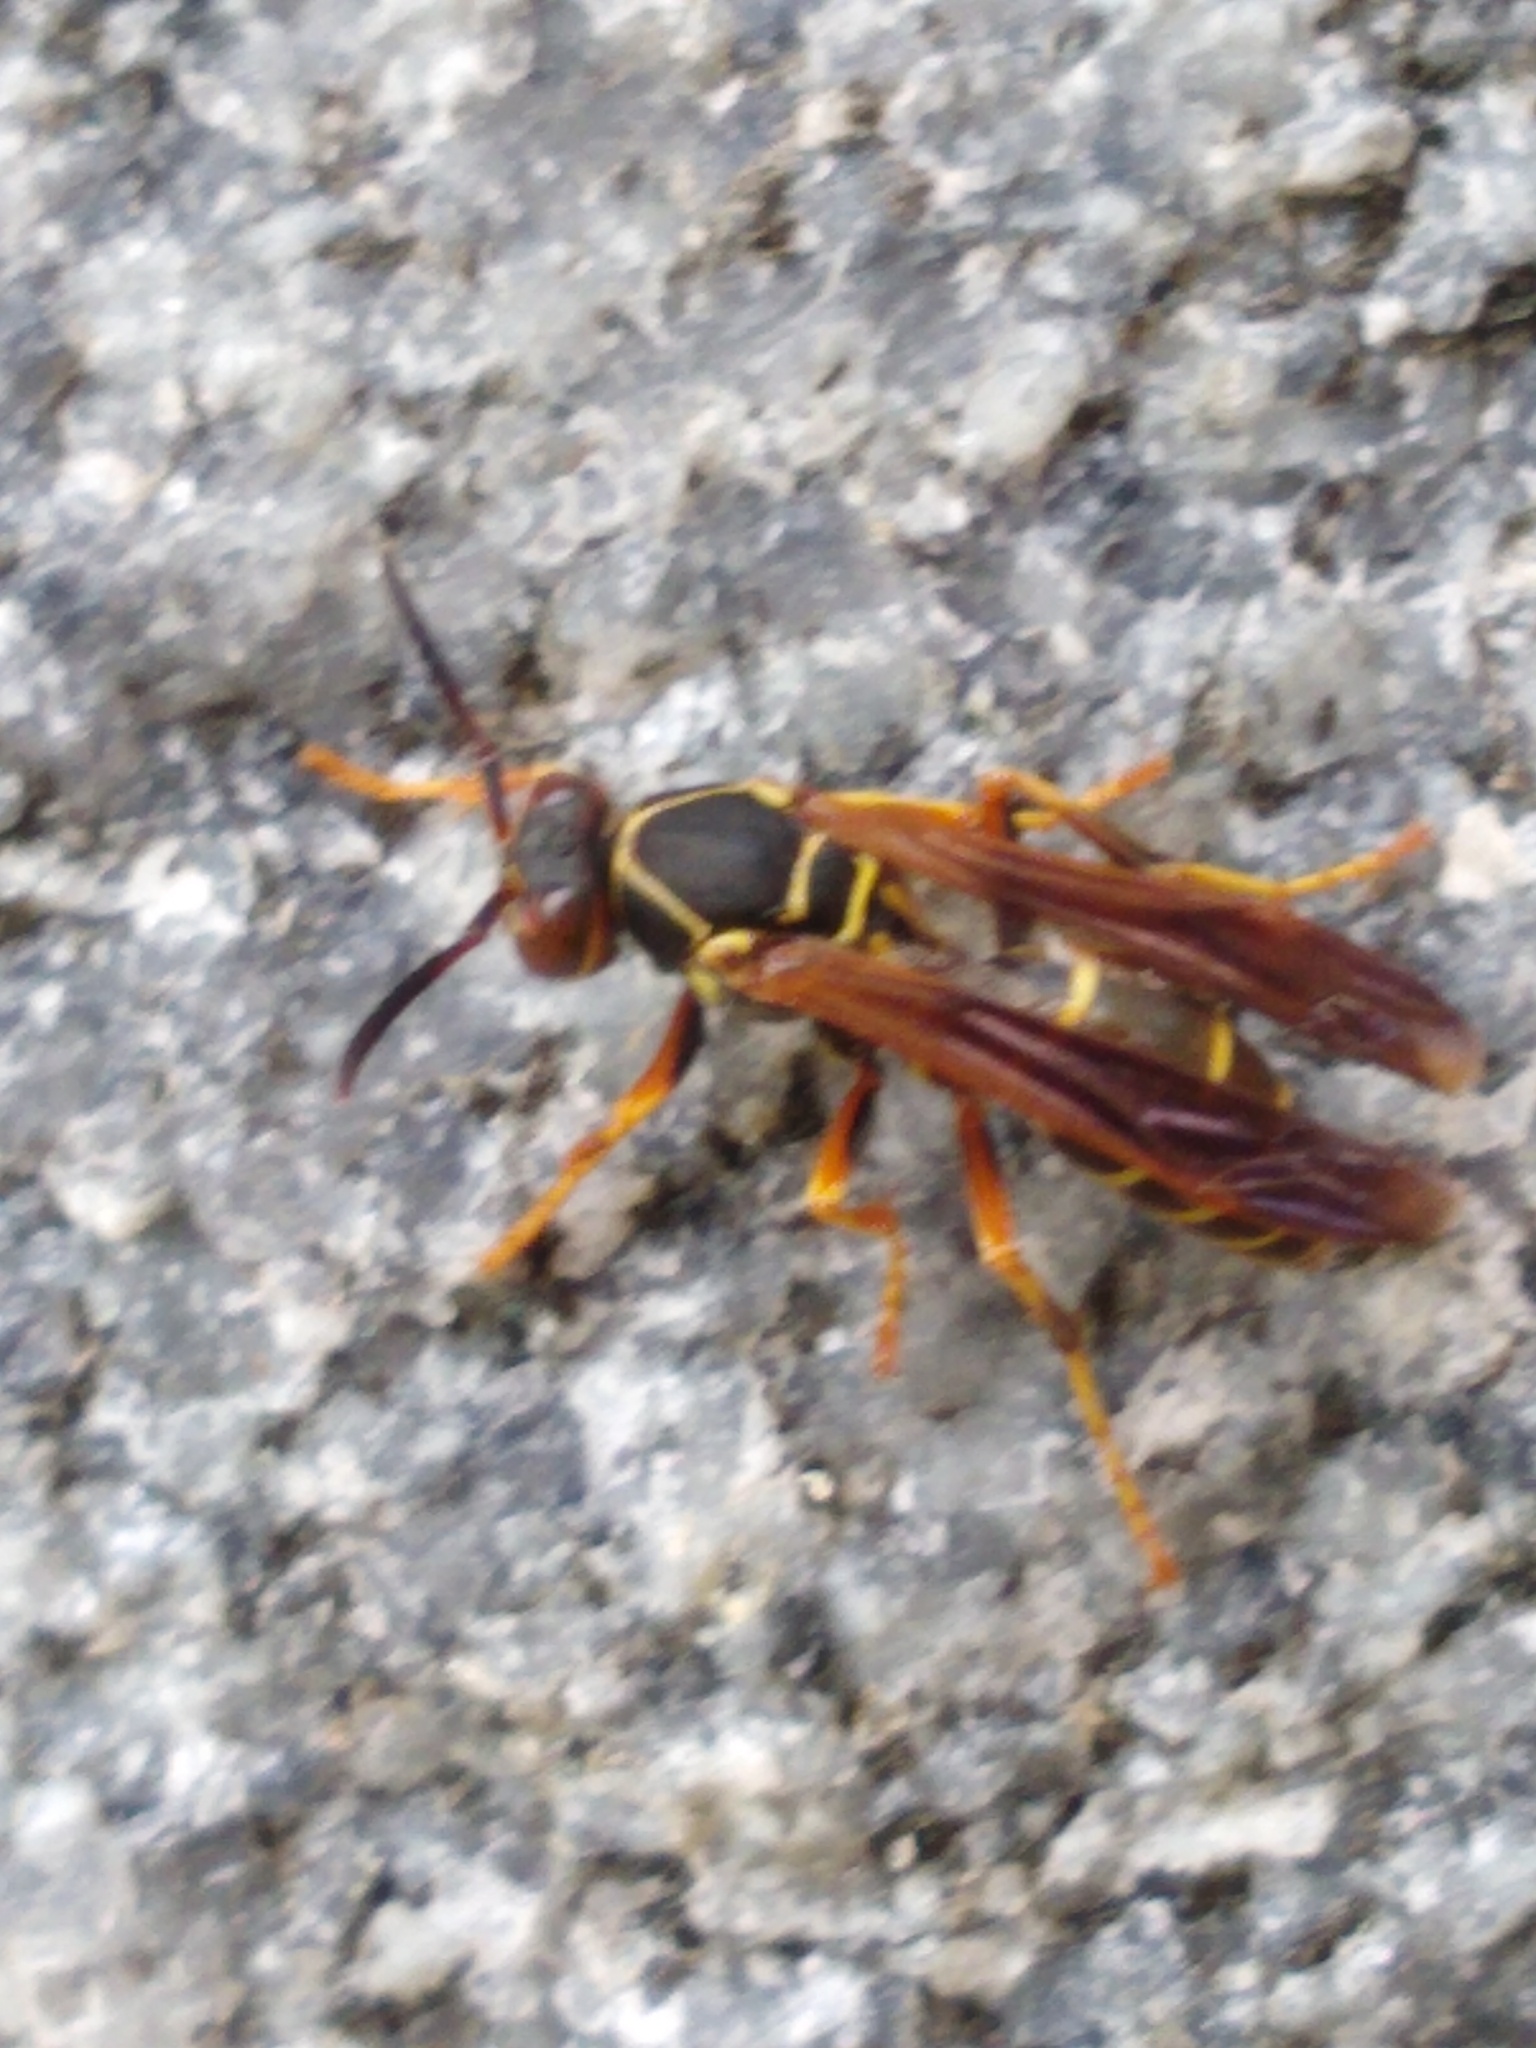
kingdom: Animalia
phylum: Arthropoda
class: Insecta
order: Hymenoptera
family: Eumenidae
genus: Polistes
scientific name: Polistes fuscatus
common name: Dark paper wasp
